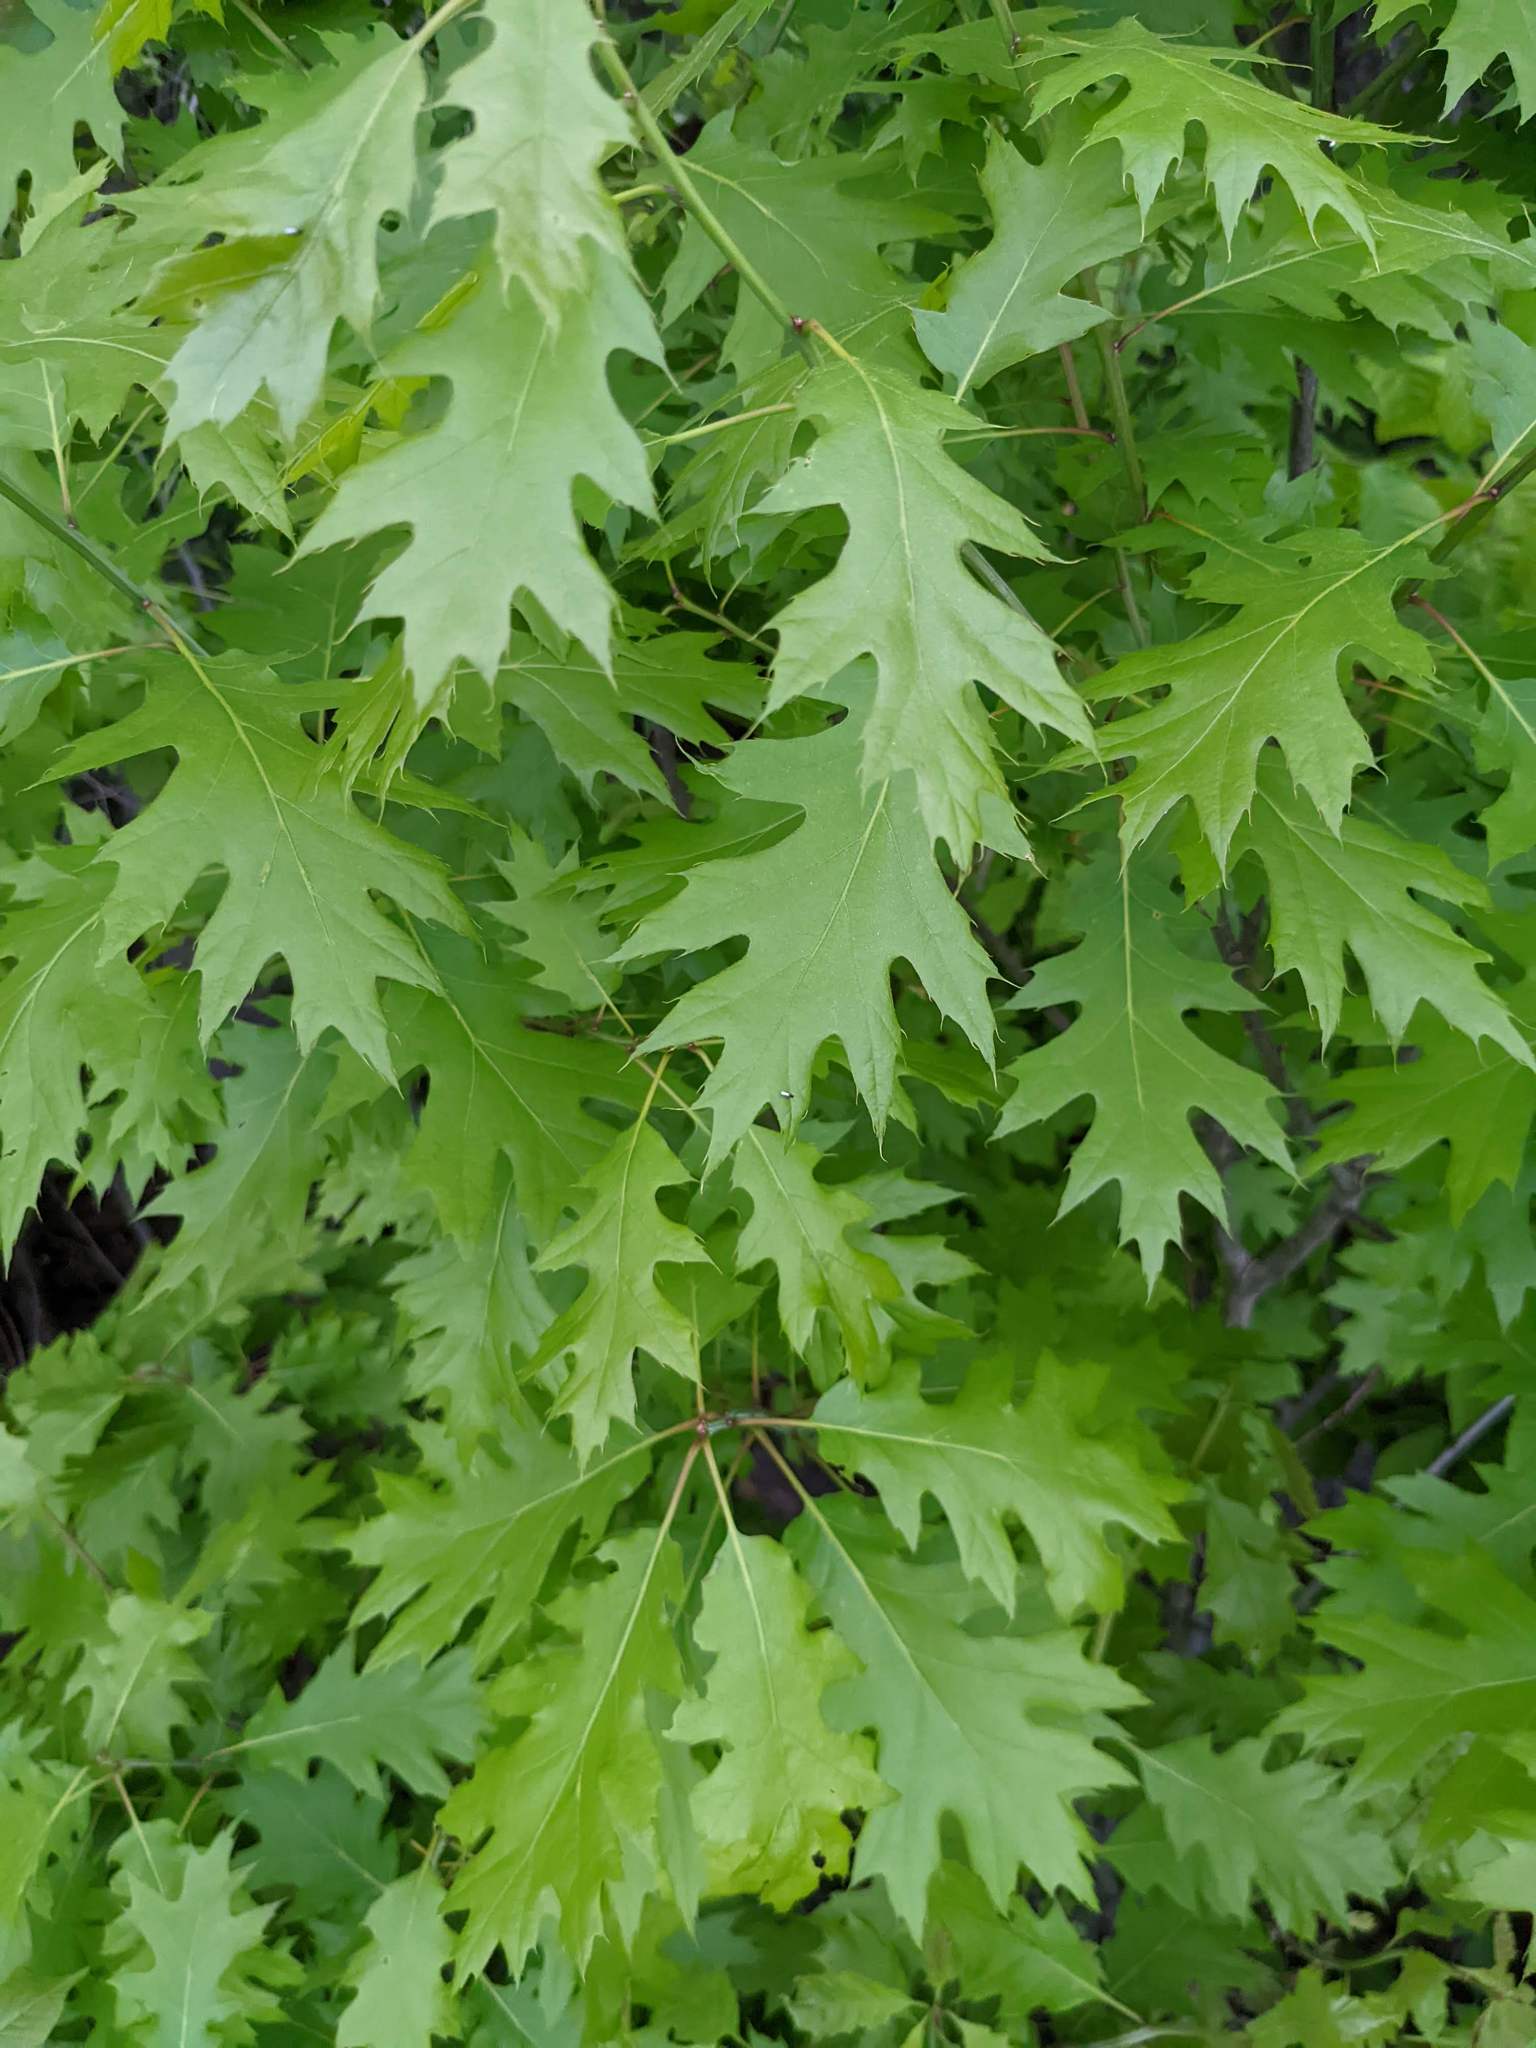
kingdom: Plantae
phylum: Tracheophyta
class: Magnoliopsida
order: Fagales
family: Fagaceae
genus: Quercus
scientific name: Quercus rubra
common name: Red oak
